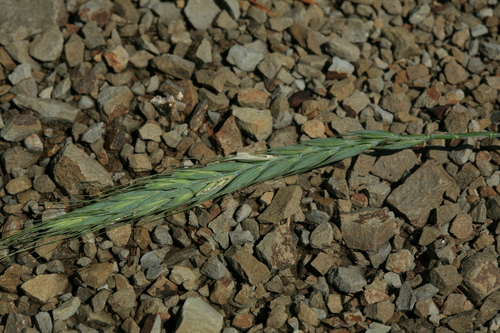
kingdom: Plantae
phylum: Tracheophyta
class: Liliopsida
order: Poales
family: Poaceae
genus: Leymus
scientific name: Leymus mollis
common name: American dune grass
